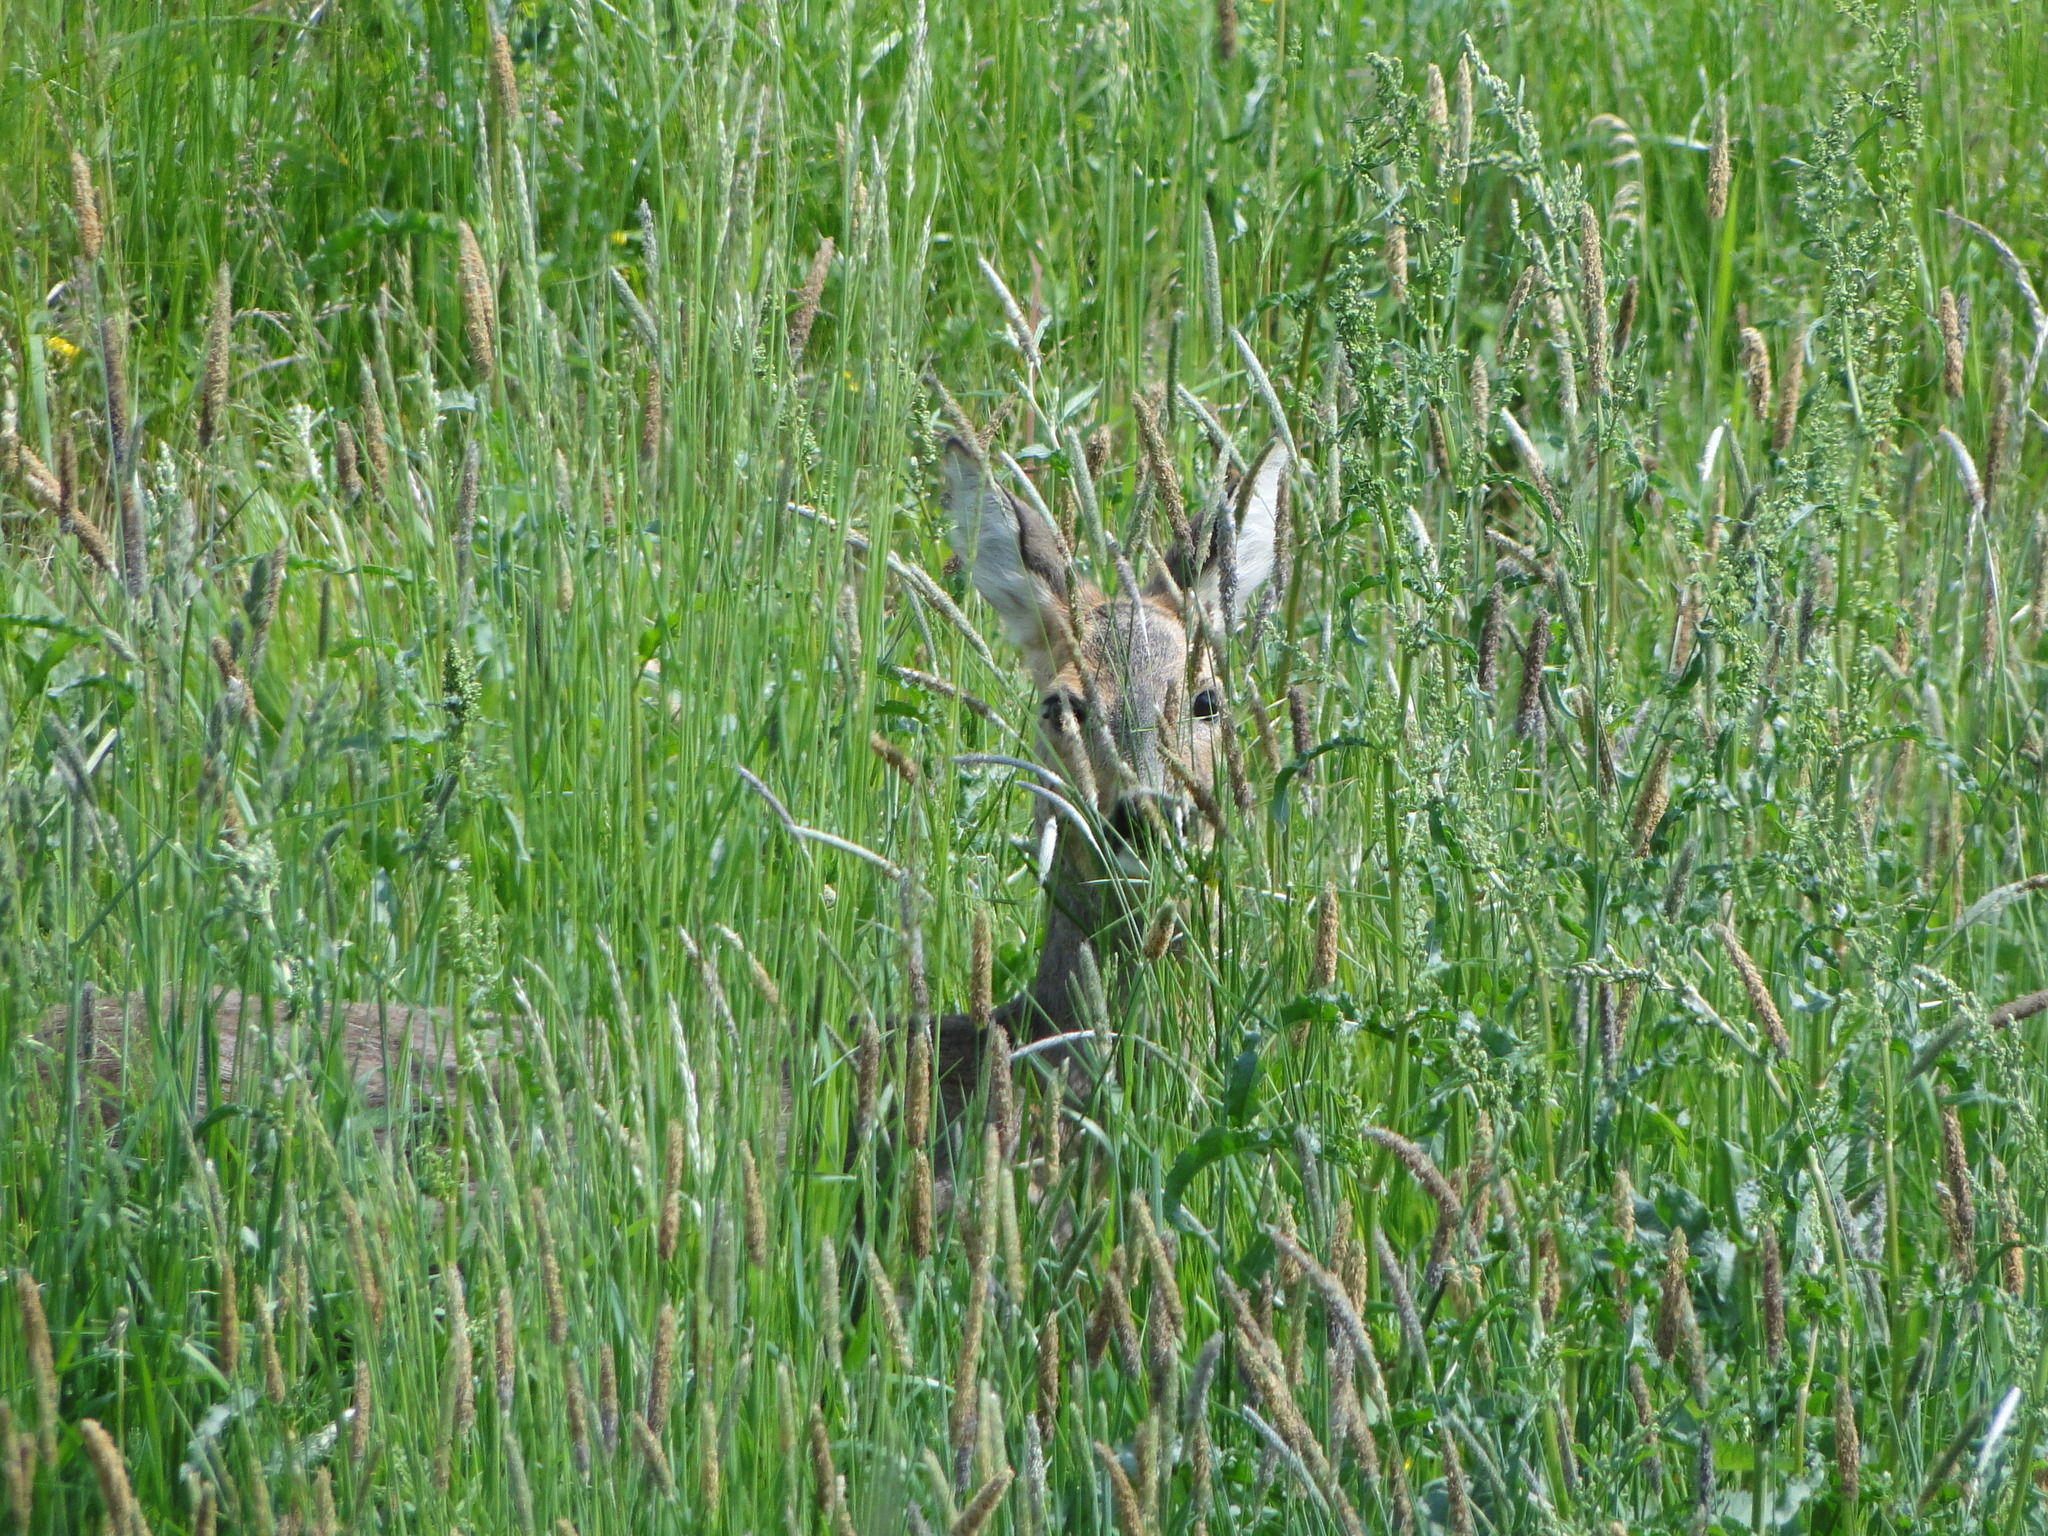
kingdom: Animalia
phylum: Chordata
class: Mammalia
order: Artiodactyla
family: Cervidae
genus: Capreolus
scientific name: Capreolus capreolus
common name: Western roe deer
